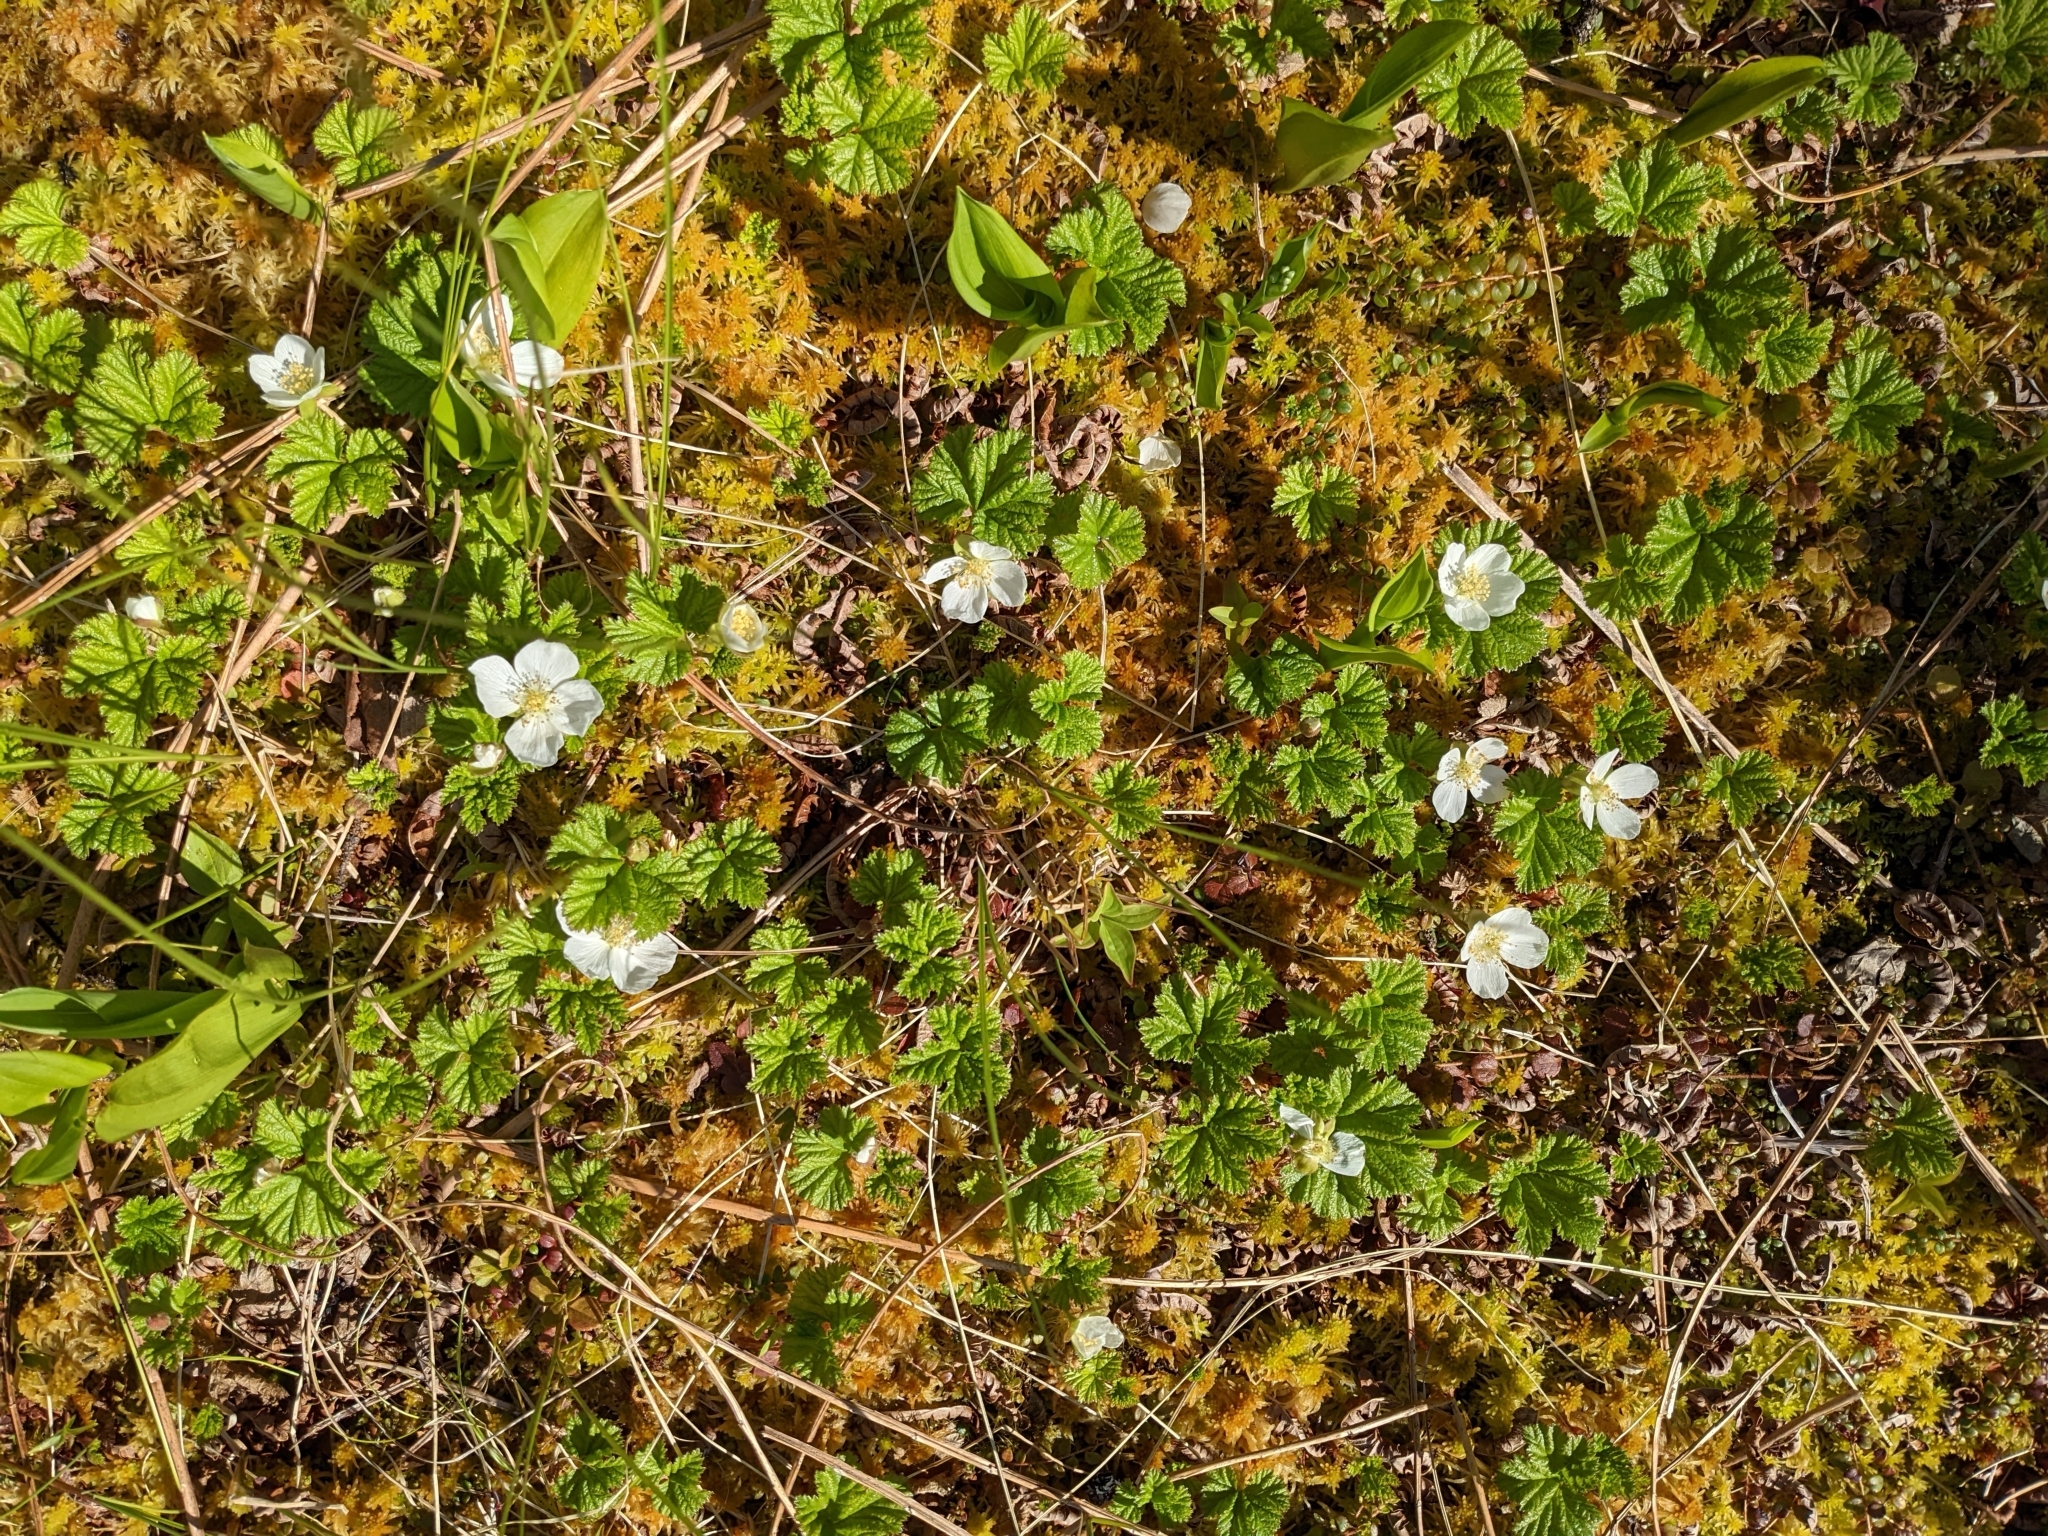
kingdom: Plantae
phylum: Tracheophyta
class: Magnoliopsida
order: Rosales
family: Rosaceae
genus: Rubus
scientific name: Rubus chamaemorus
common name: Cloudberry
